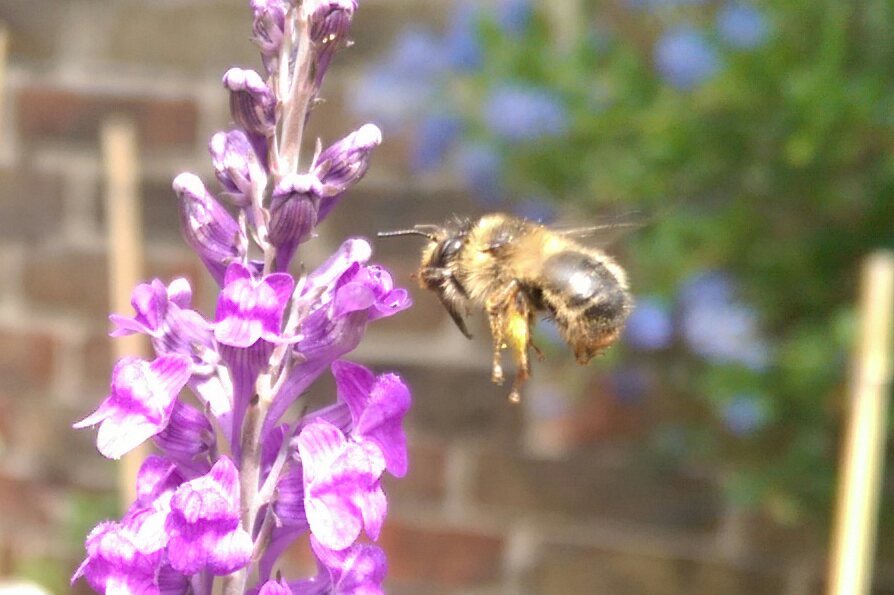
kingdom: Animalia
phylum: Arthropoda
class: Insecta
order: Hymenoptera
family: Apidae
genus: Anthophora
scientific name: Anthophora furcata
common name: Fork-tailed flower bee
